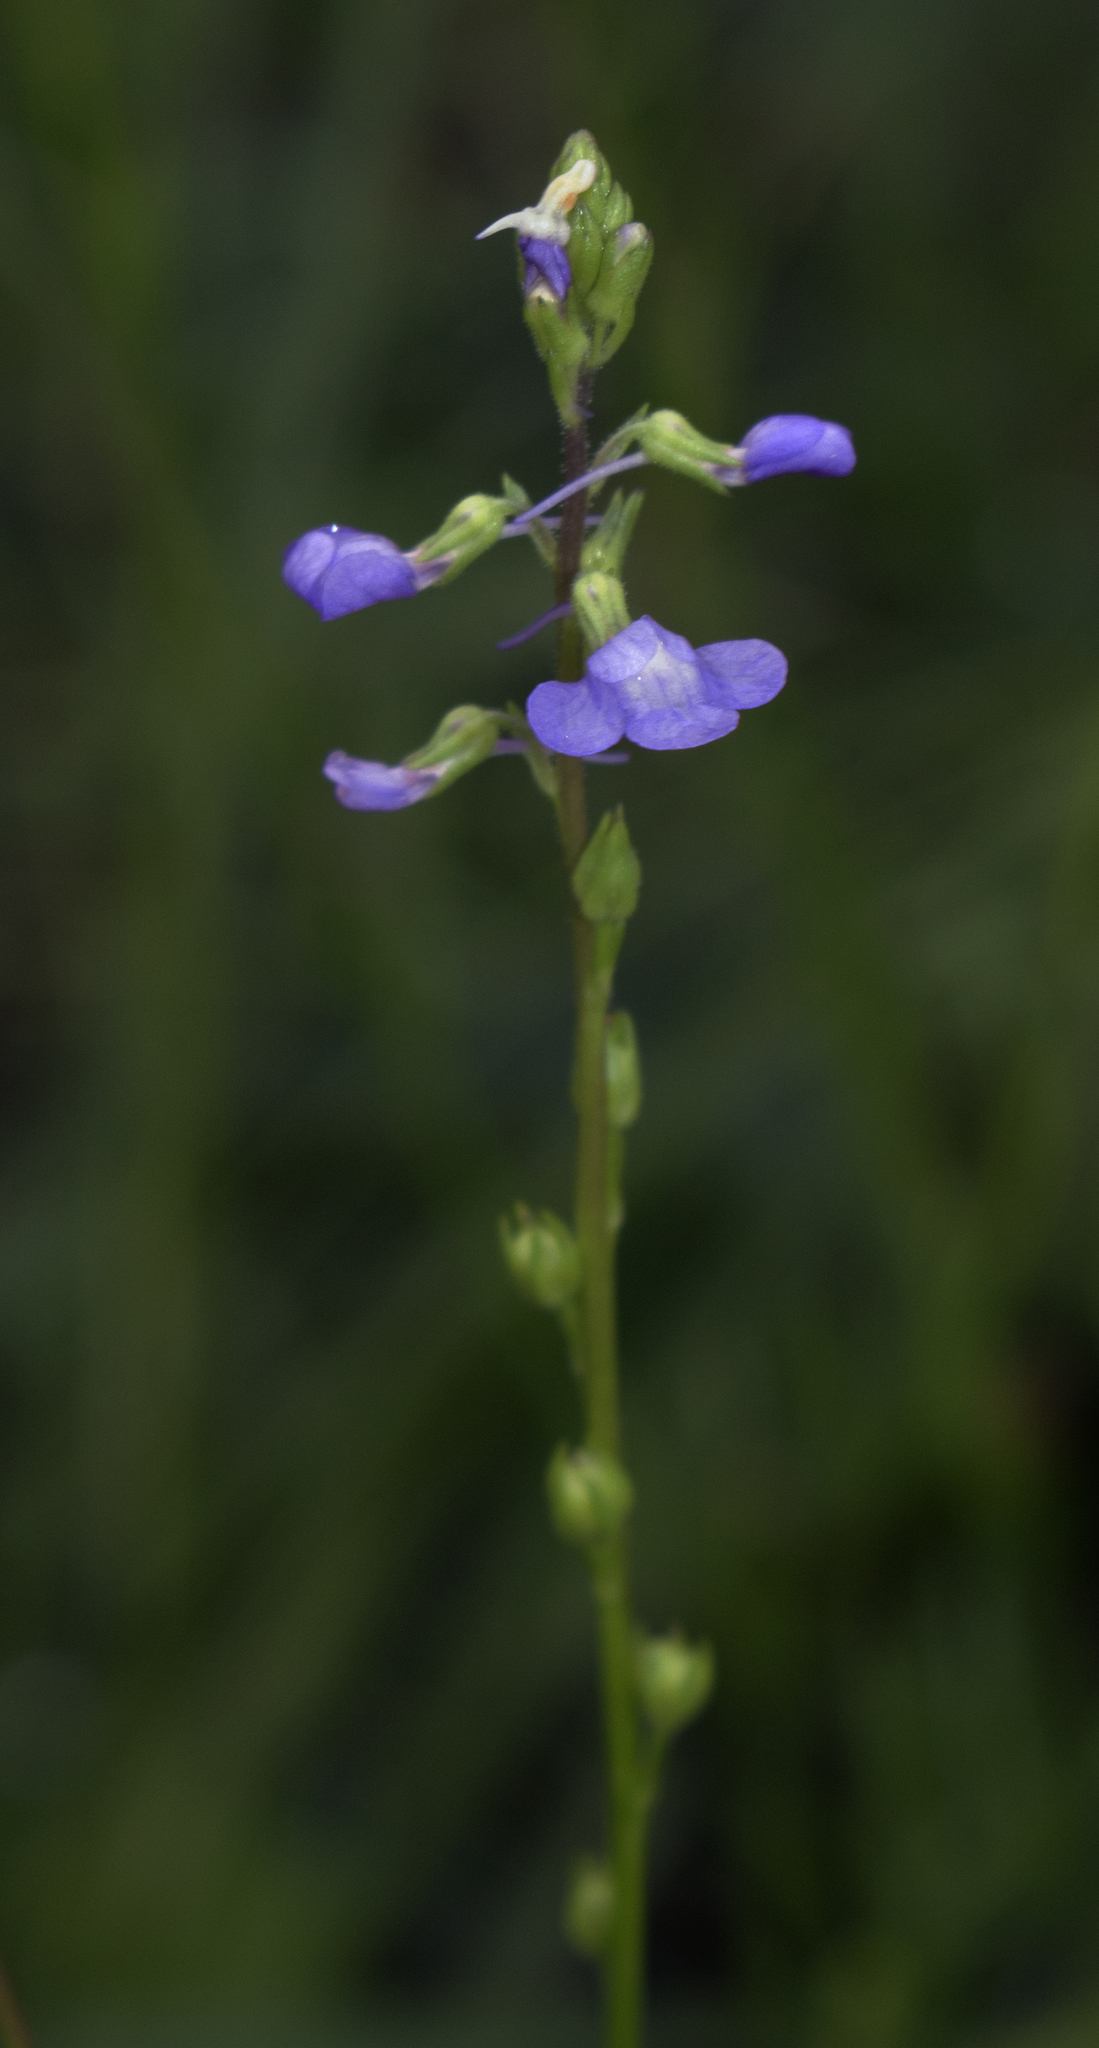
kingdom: Plantae
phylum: Tracheophyta
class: Magnoliopsida
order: Lamiales
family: Plantaginaceae
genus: Nuttallanthus
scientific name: Nuttallanthus canadensis
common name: Blue toadflax
